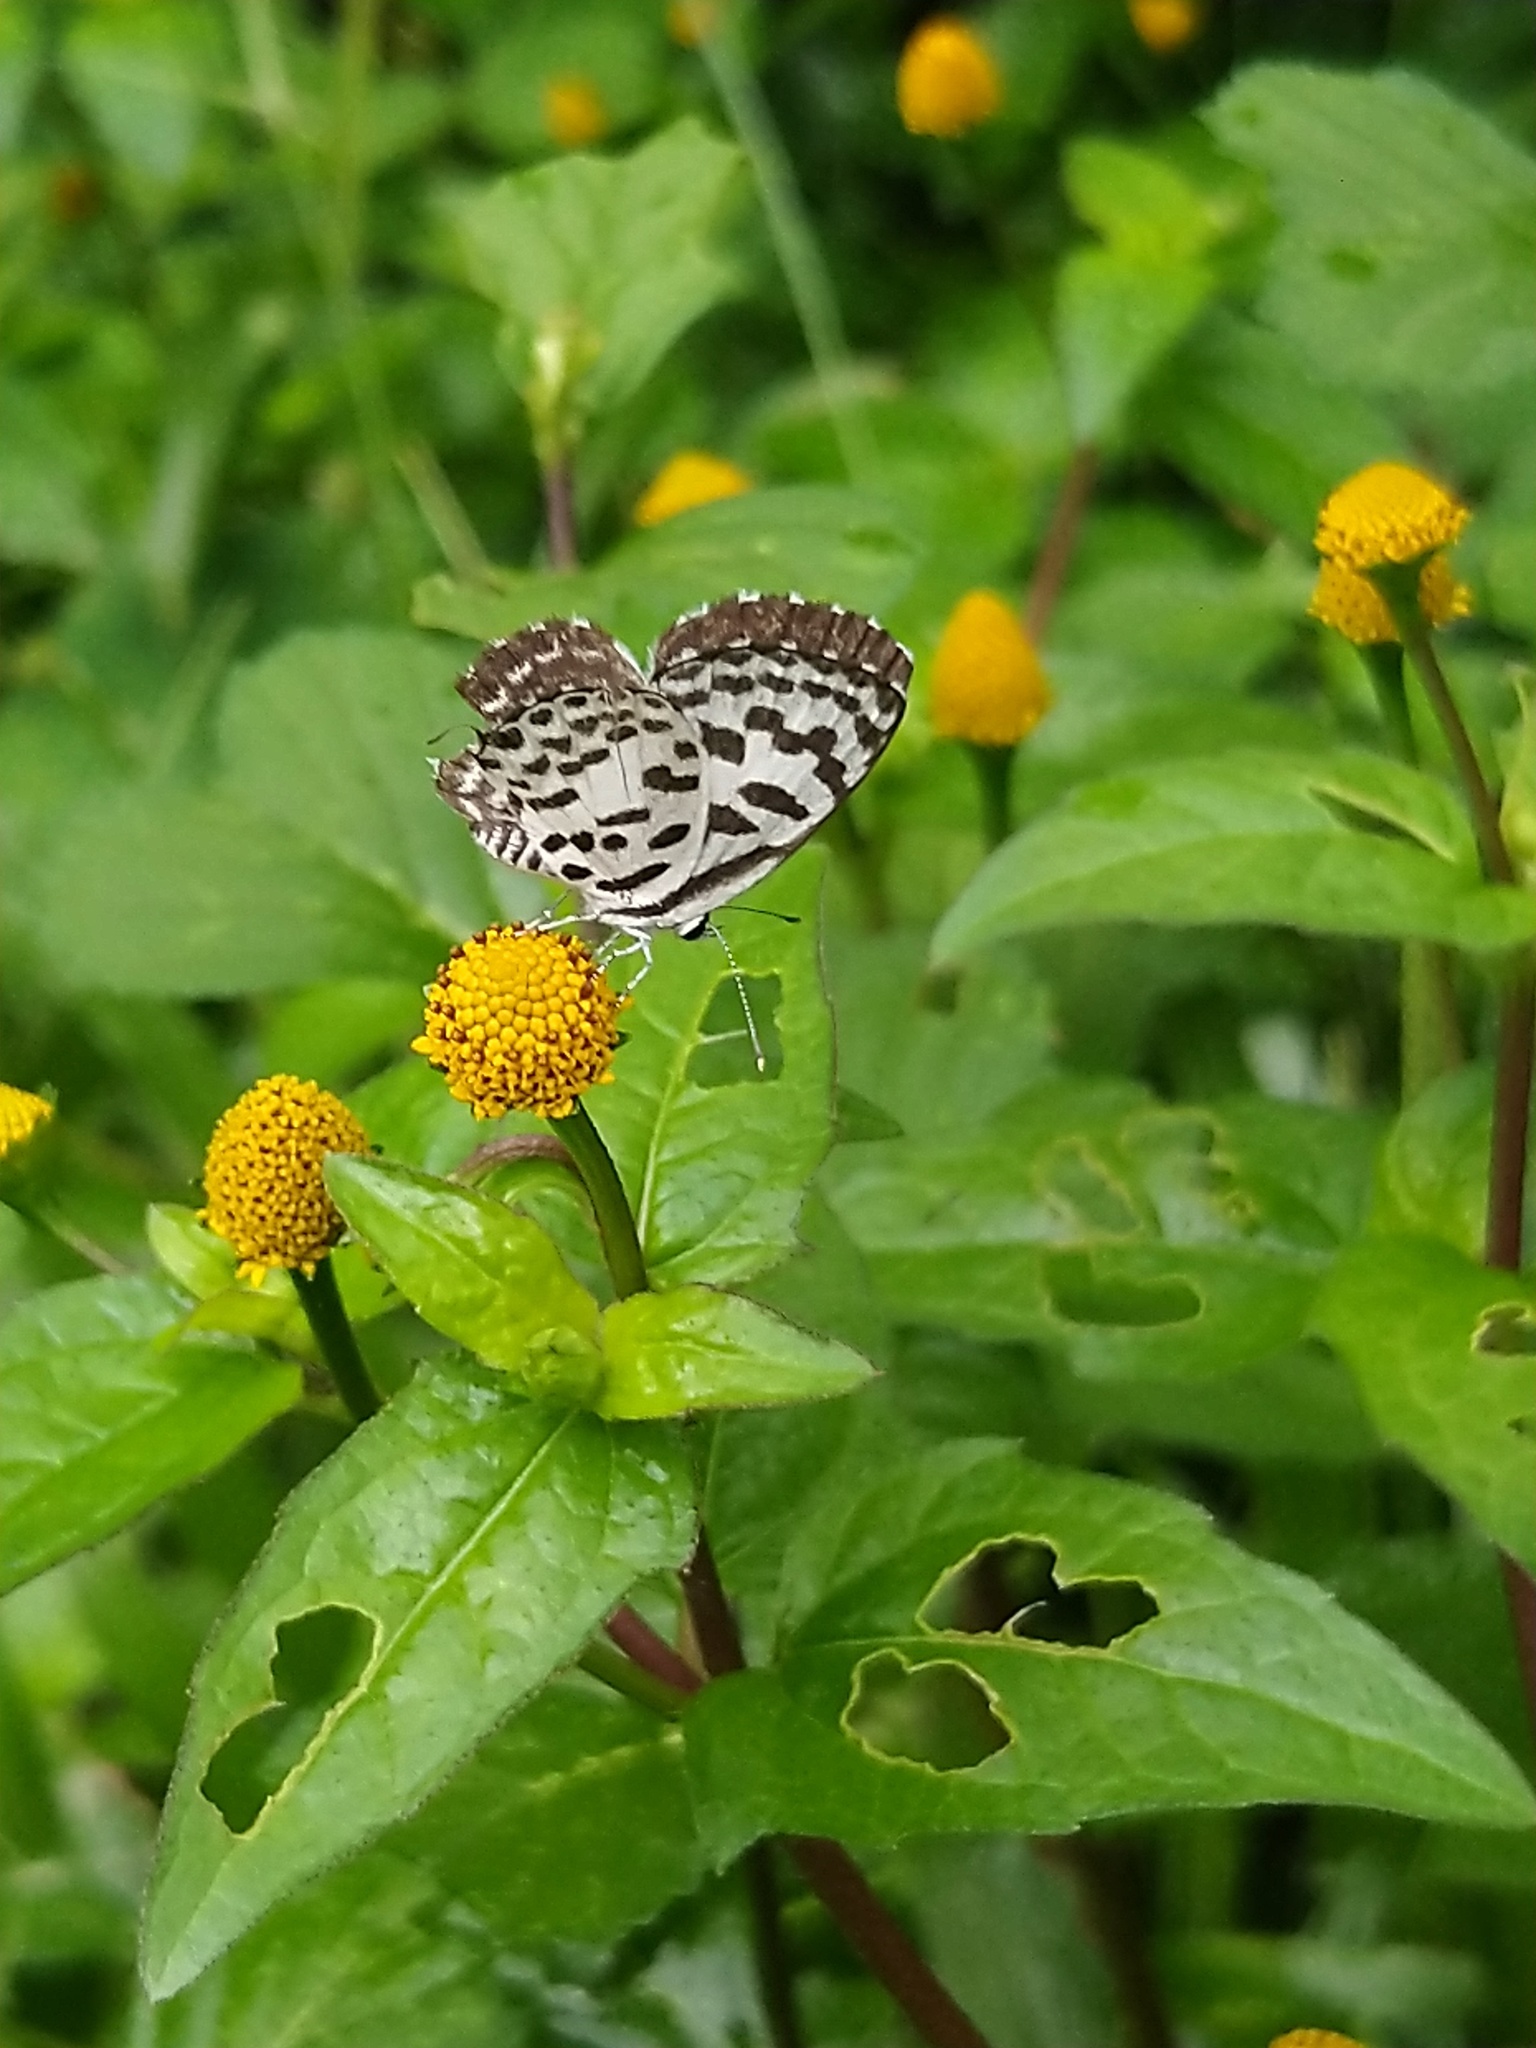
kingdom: Animalia
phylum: Arthropoda
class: Insecta
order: Lepidoptera
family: Lycaenidae
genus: Castalius
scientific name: Castalius rosimon
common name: Common pierrot
